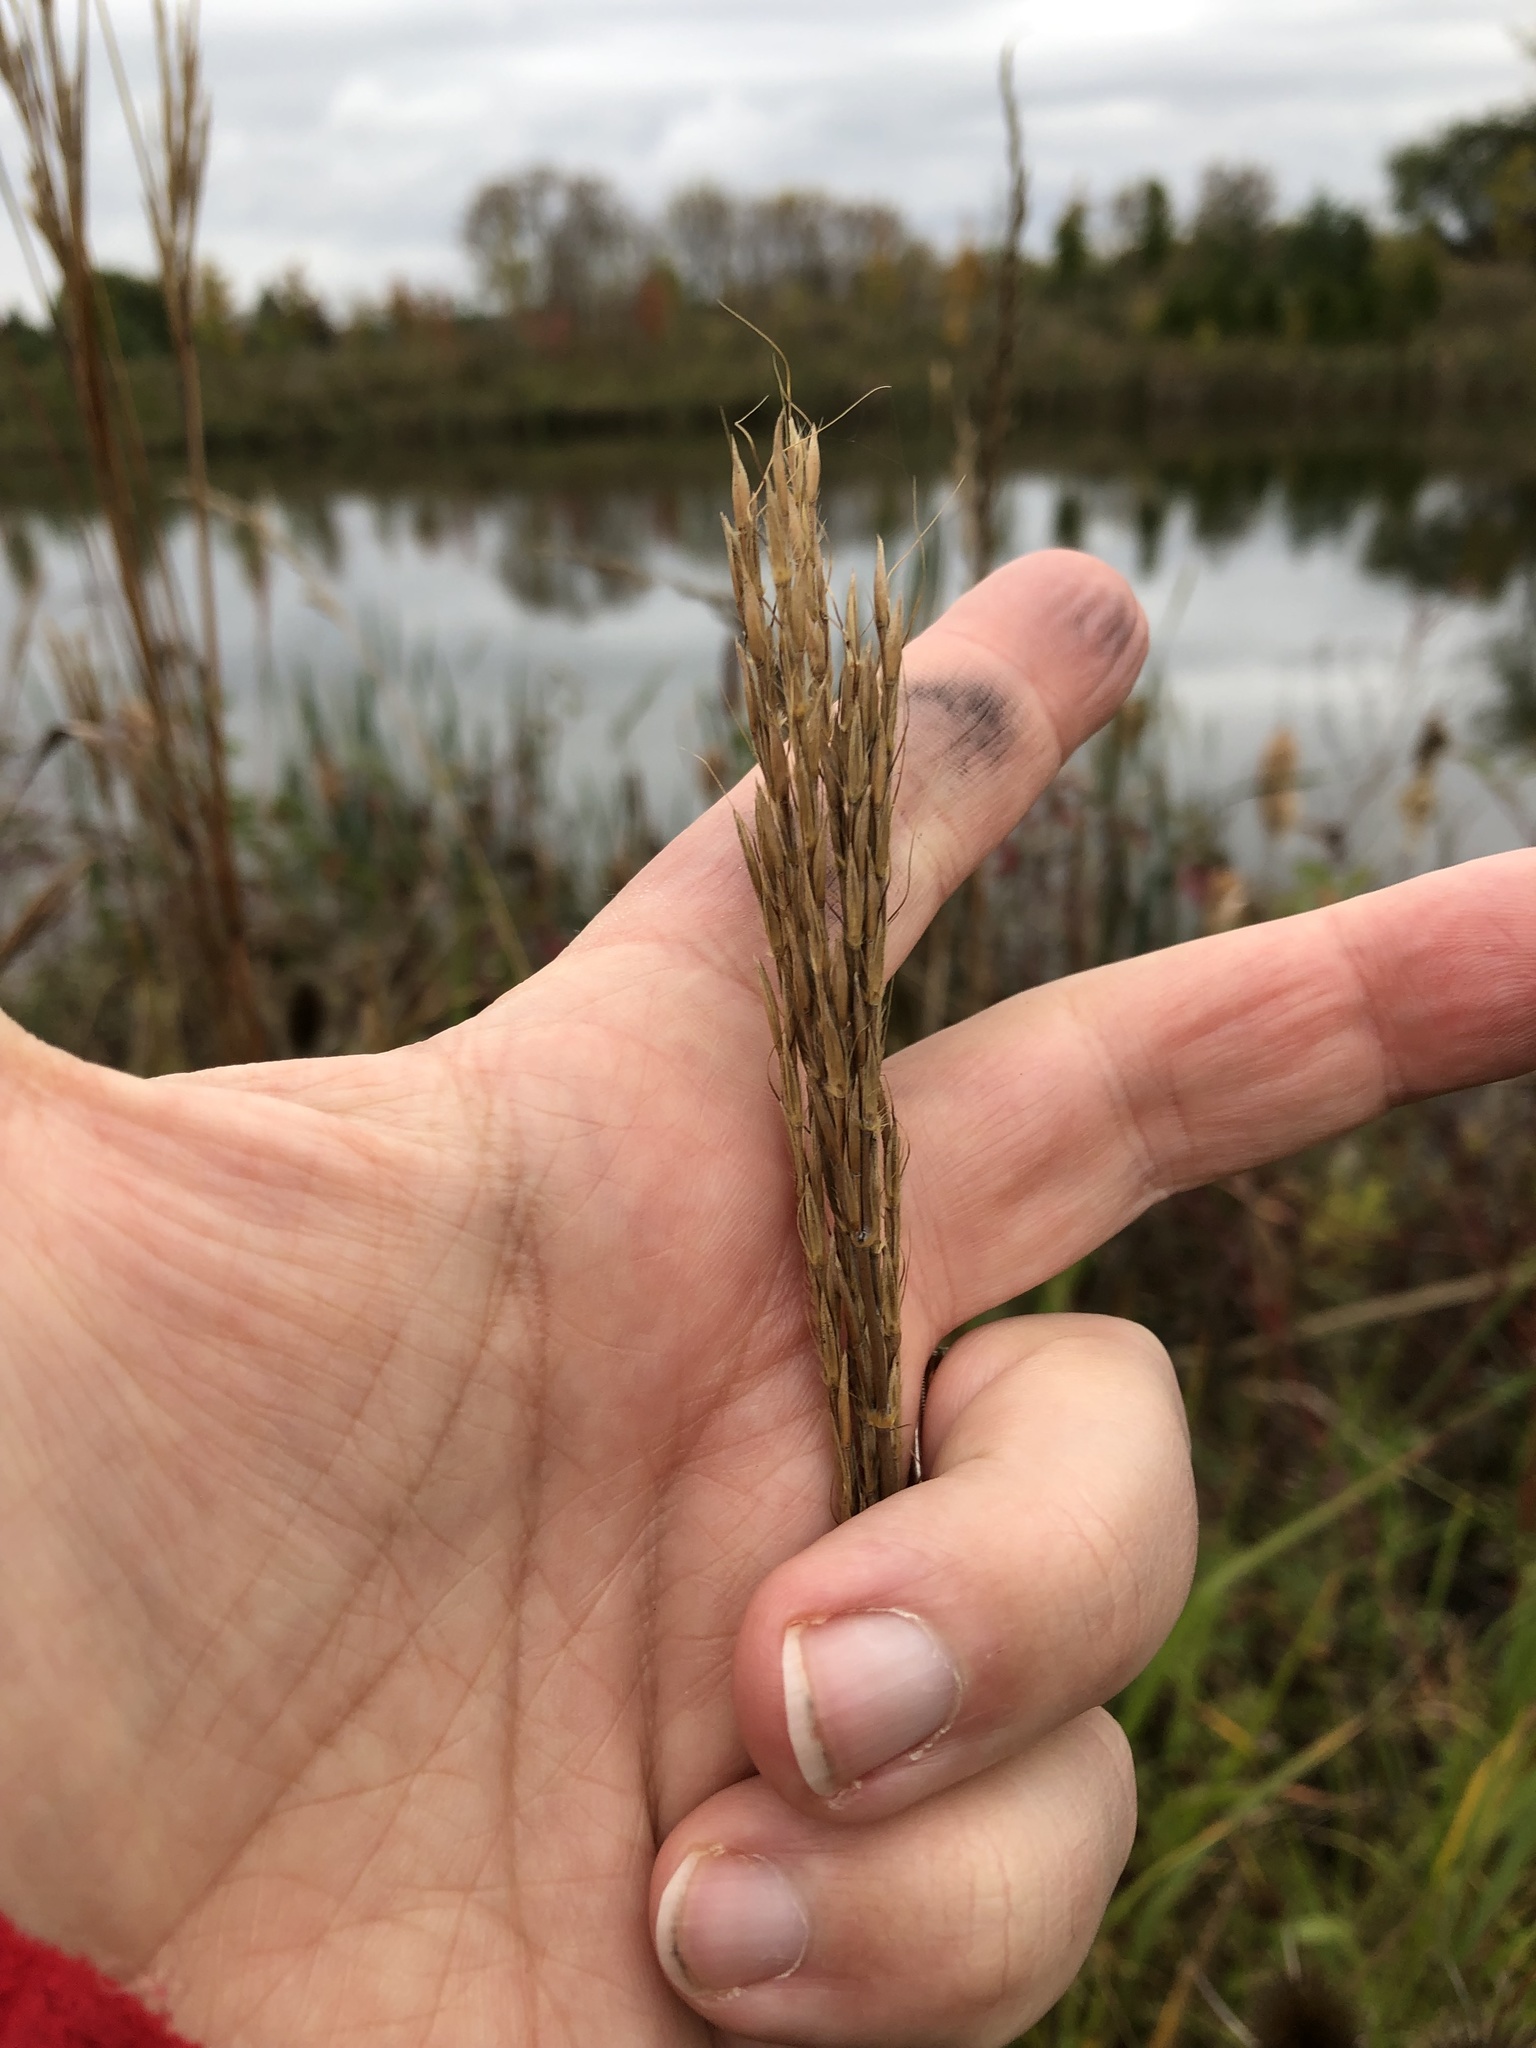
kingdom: Plantae
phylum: Tracheophyta
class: Liliopsida
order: Poales
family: Poaceae
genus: Andropogon
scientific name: Andropogon gerardi
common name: Big bluestem
